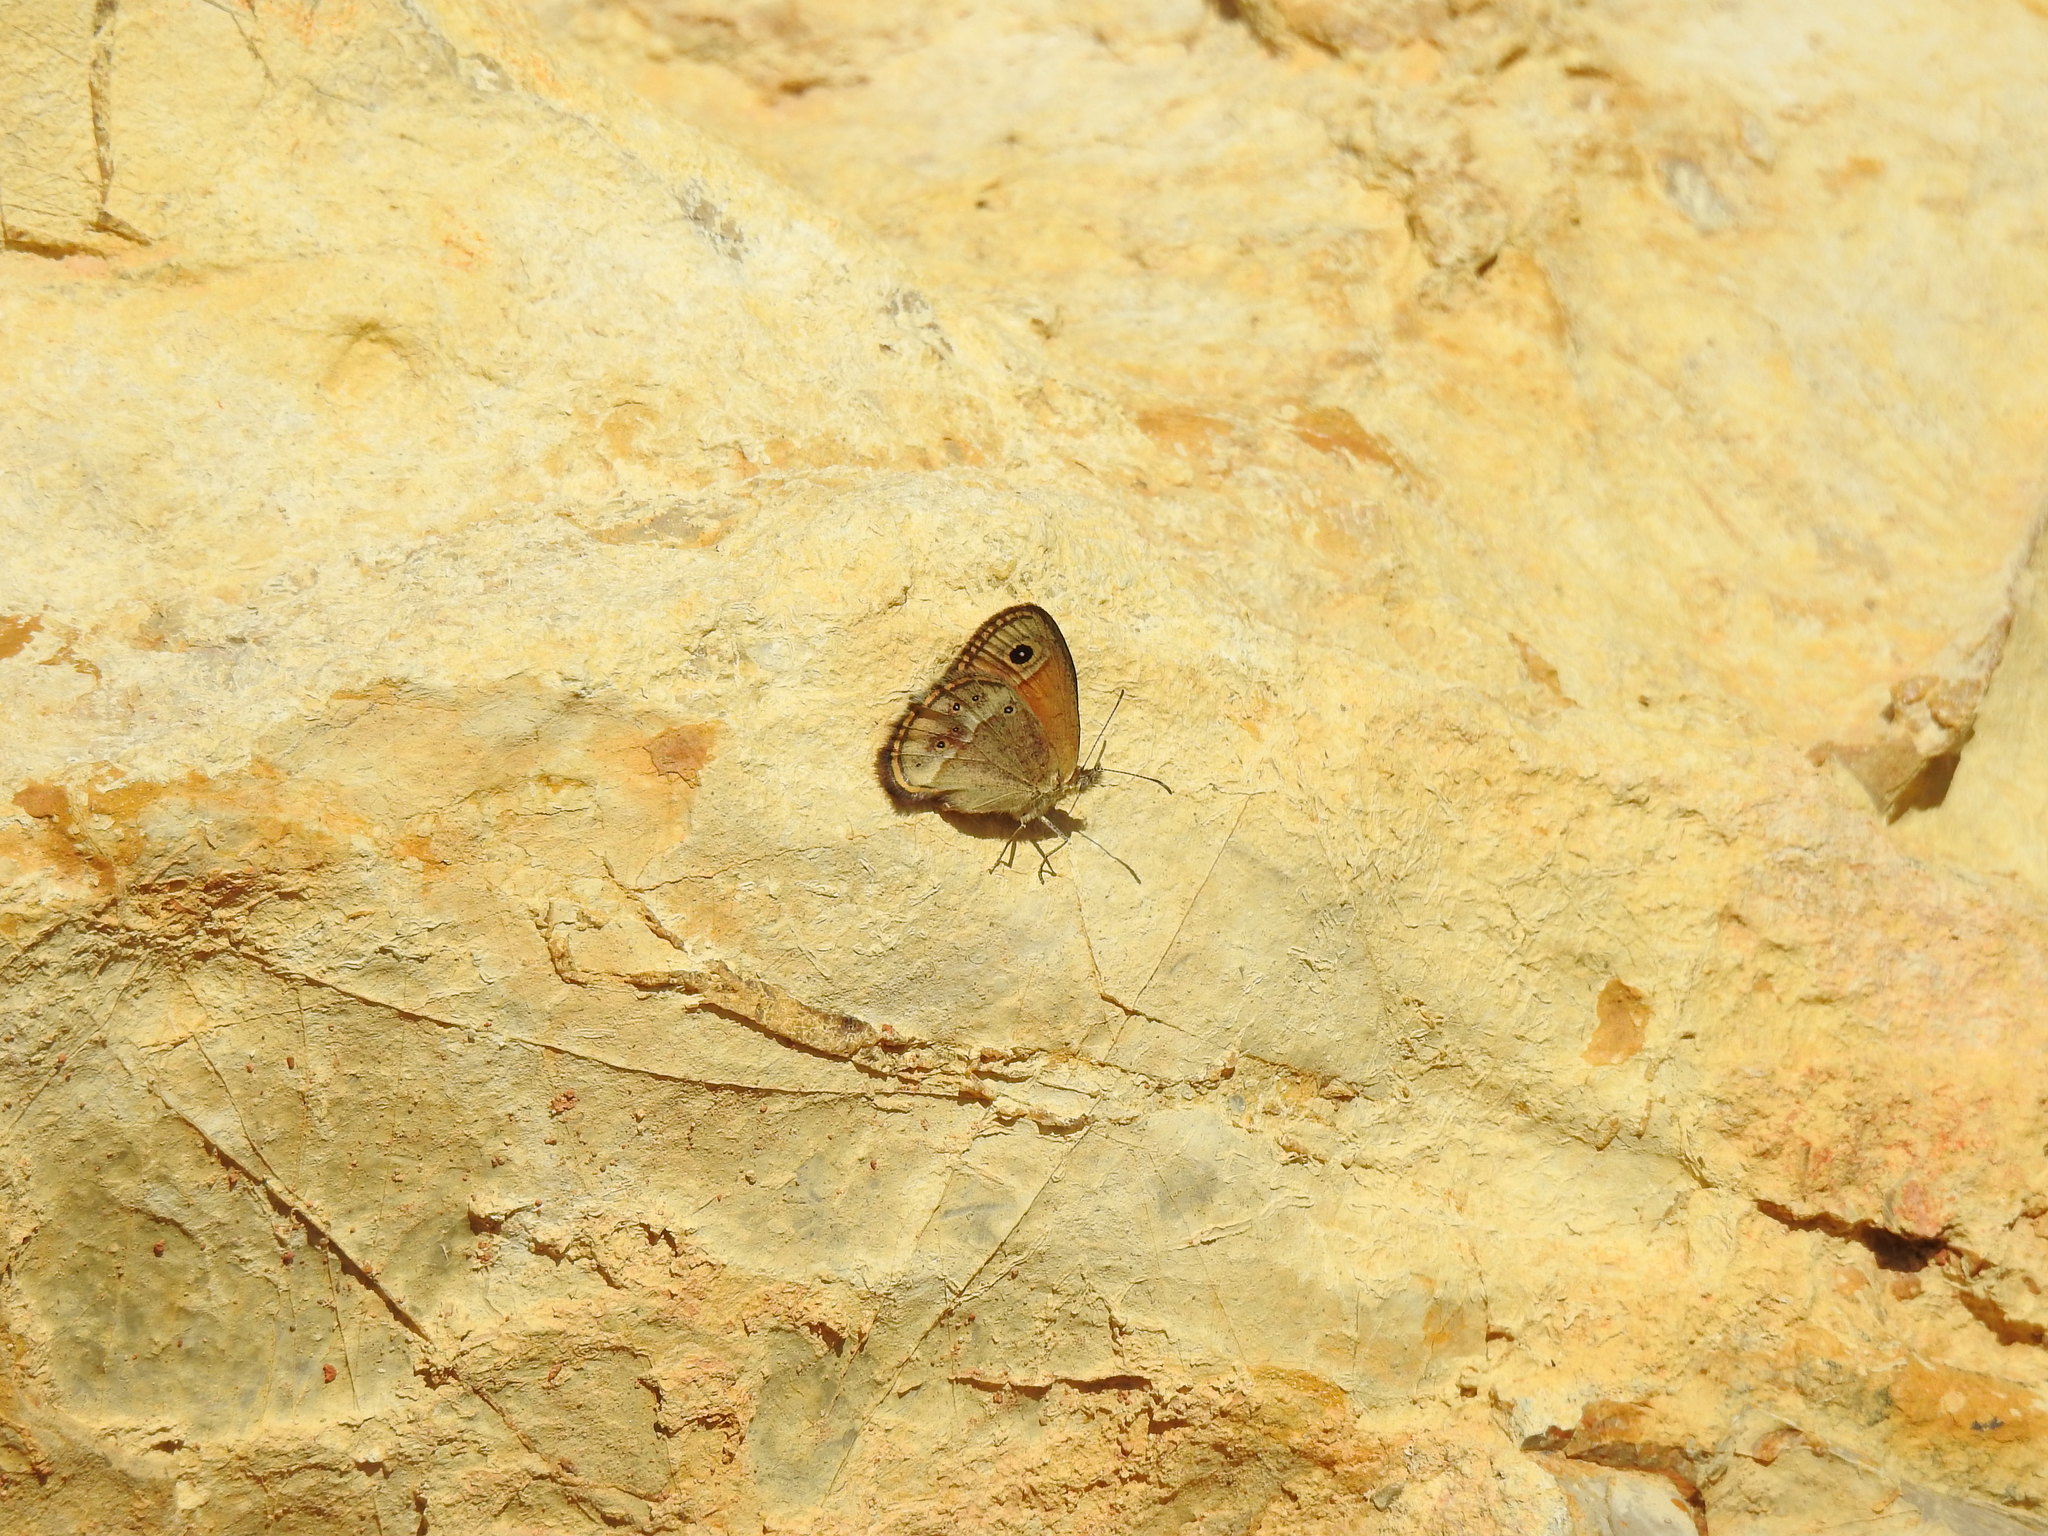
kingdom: Animalia
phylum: Arthropoda
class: Insecta
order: Lepidoptera
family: Nymphalidae
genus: Coenonympha
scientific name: Coenonympha dorus
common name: Dusky heath
